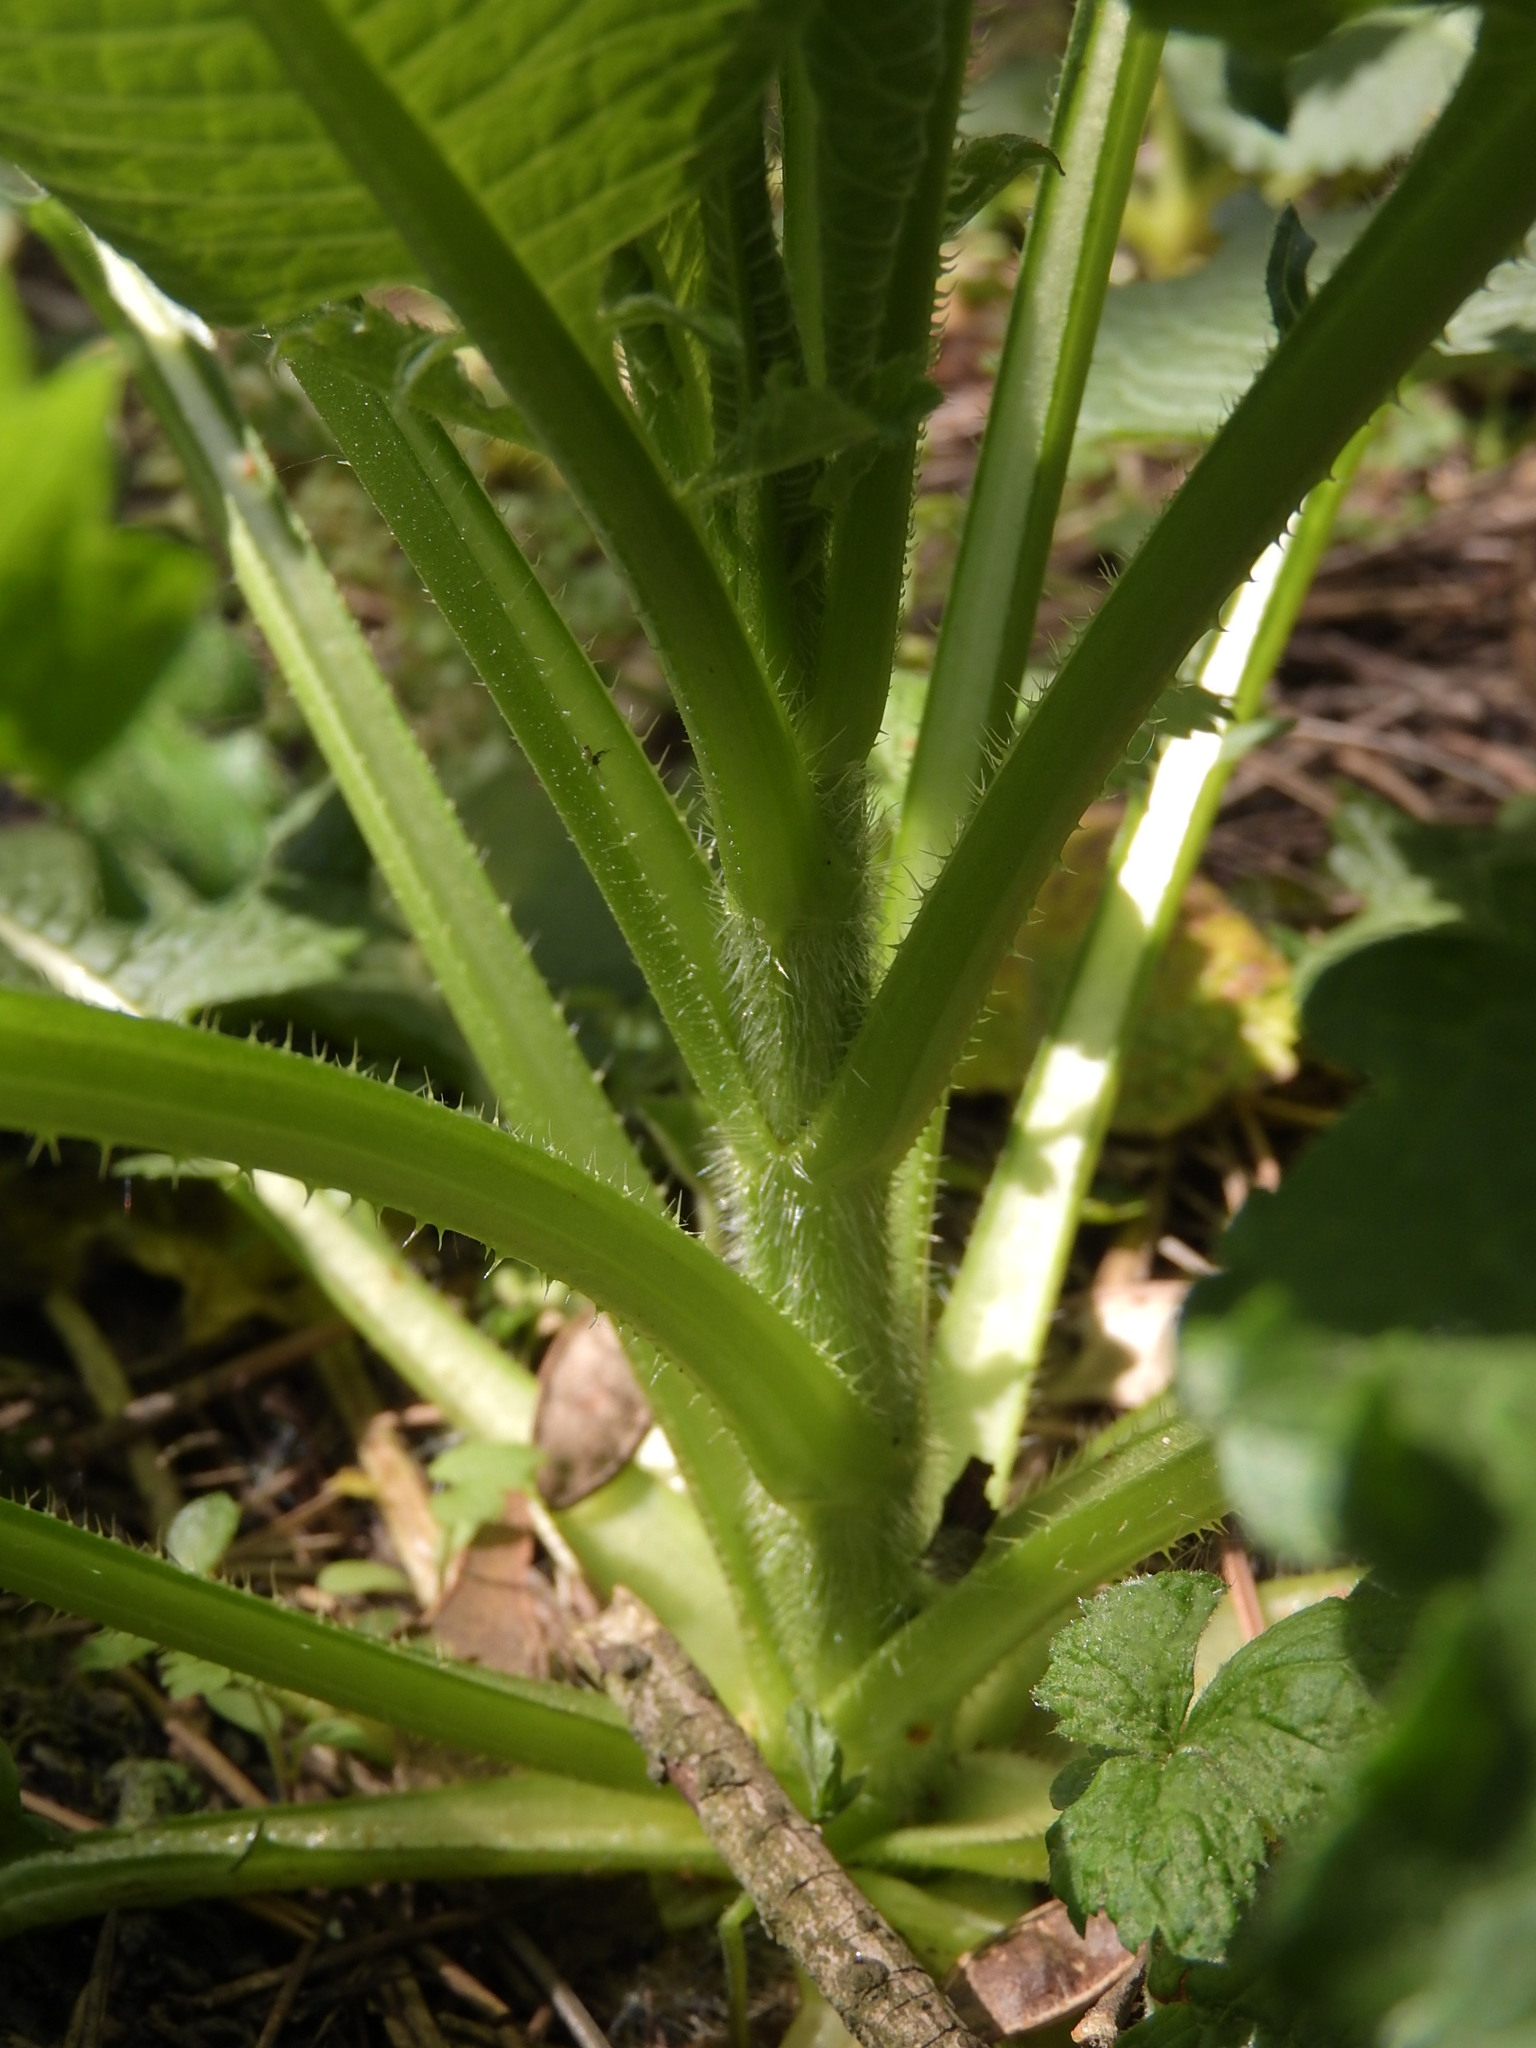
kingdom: Plantae
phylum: Tracheophyta
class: Magnoliopsida
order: Dipsacales
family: Caprifoliaceae
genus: Dipsacus
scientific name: Dipsacus strigosus
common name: Yellow-flowered teasel
